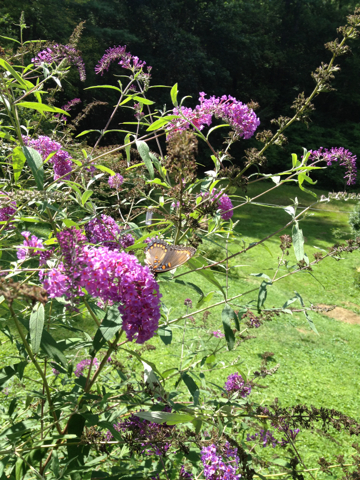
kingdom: Animalia
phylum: Arthropoda
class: Insecta
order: Lepidoptera
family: Nymphalidae
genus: Limenitis
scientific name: Limenitis arthemis
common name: Red-spotted admiral
